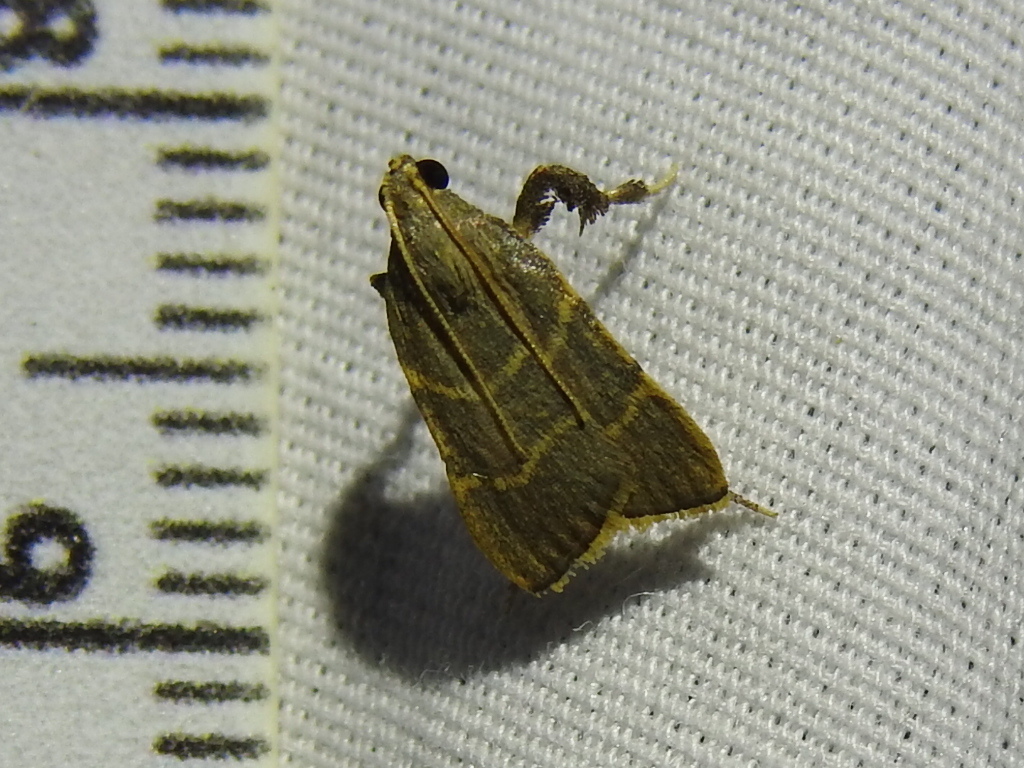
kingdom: Animalia
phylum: Arthropoda
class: Insecta
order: Lepidoptera
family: Pyralidae
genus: Parachma
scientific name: Parachma ochracealis
